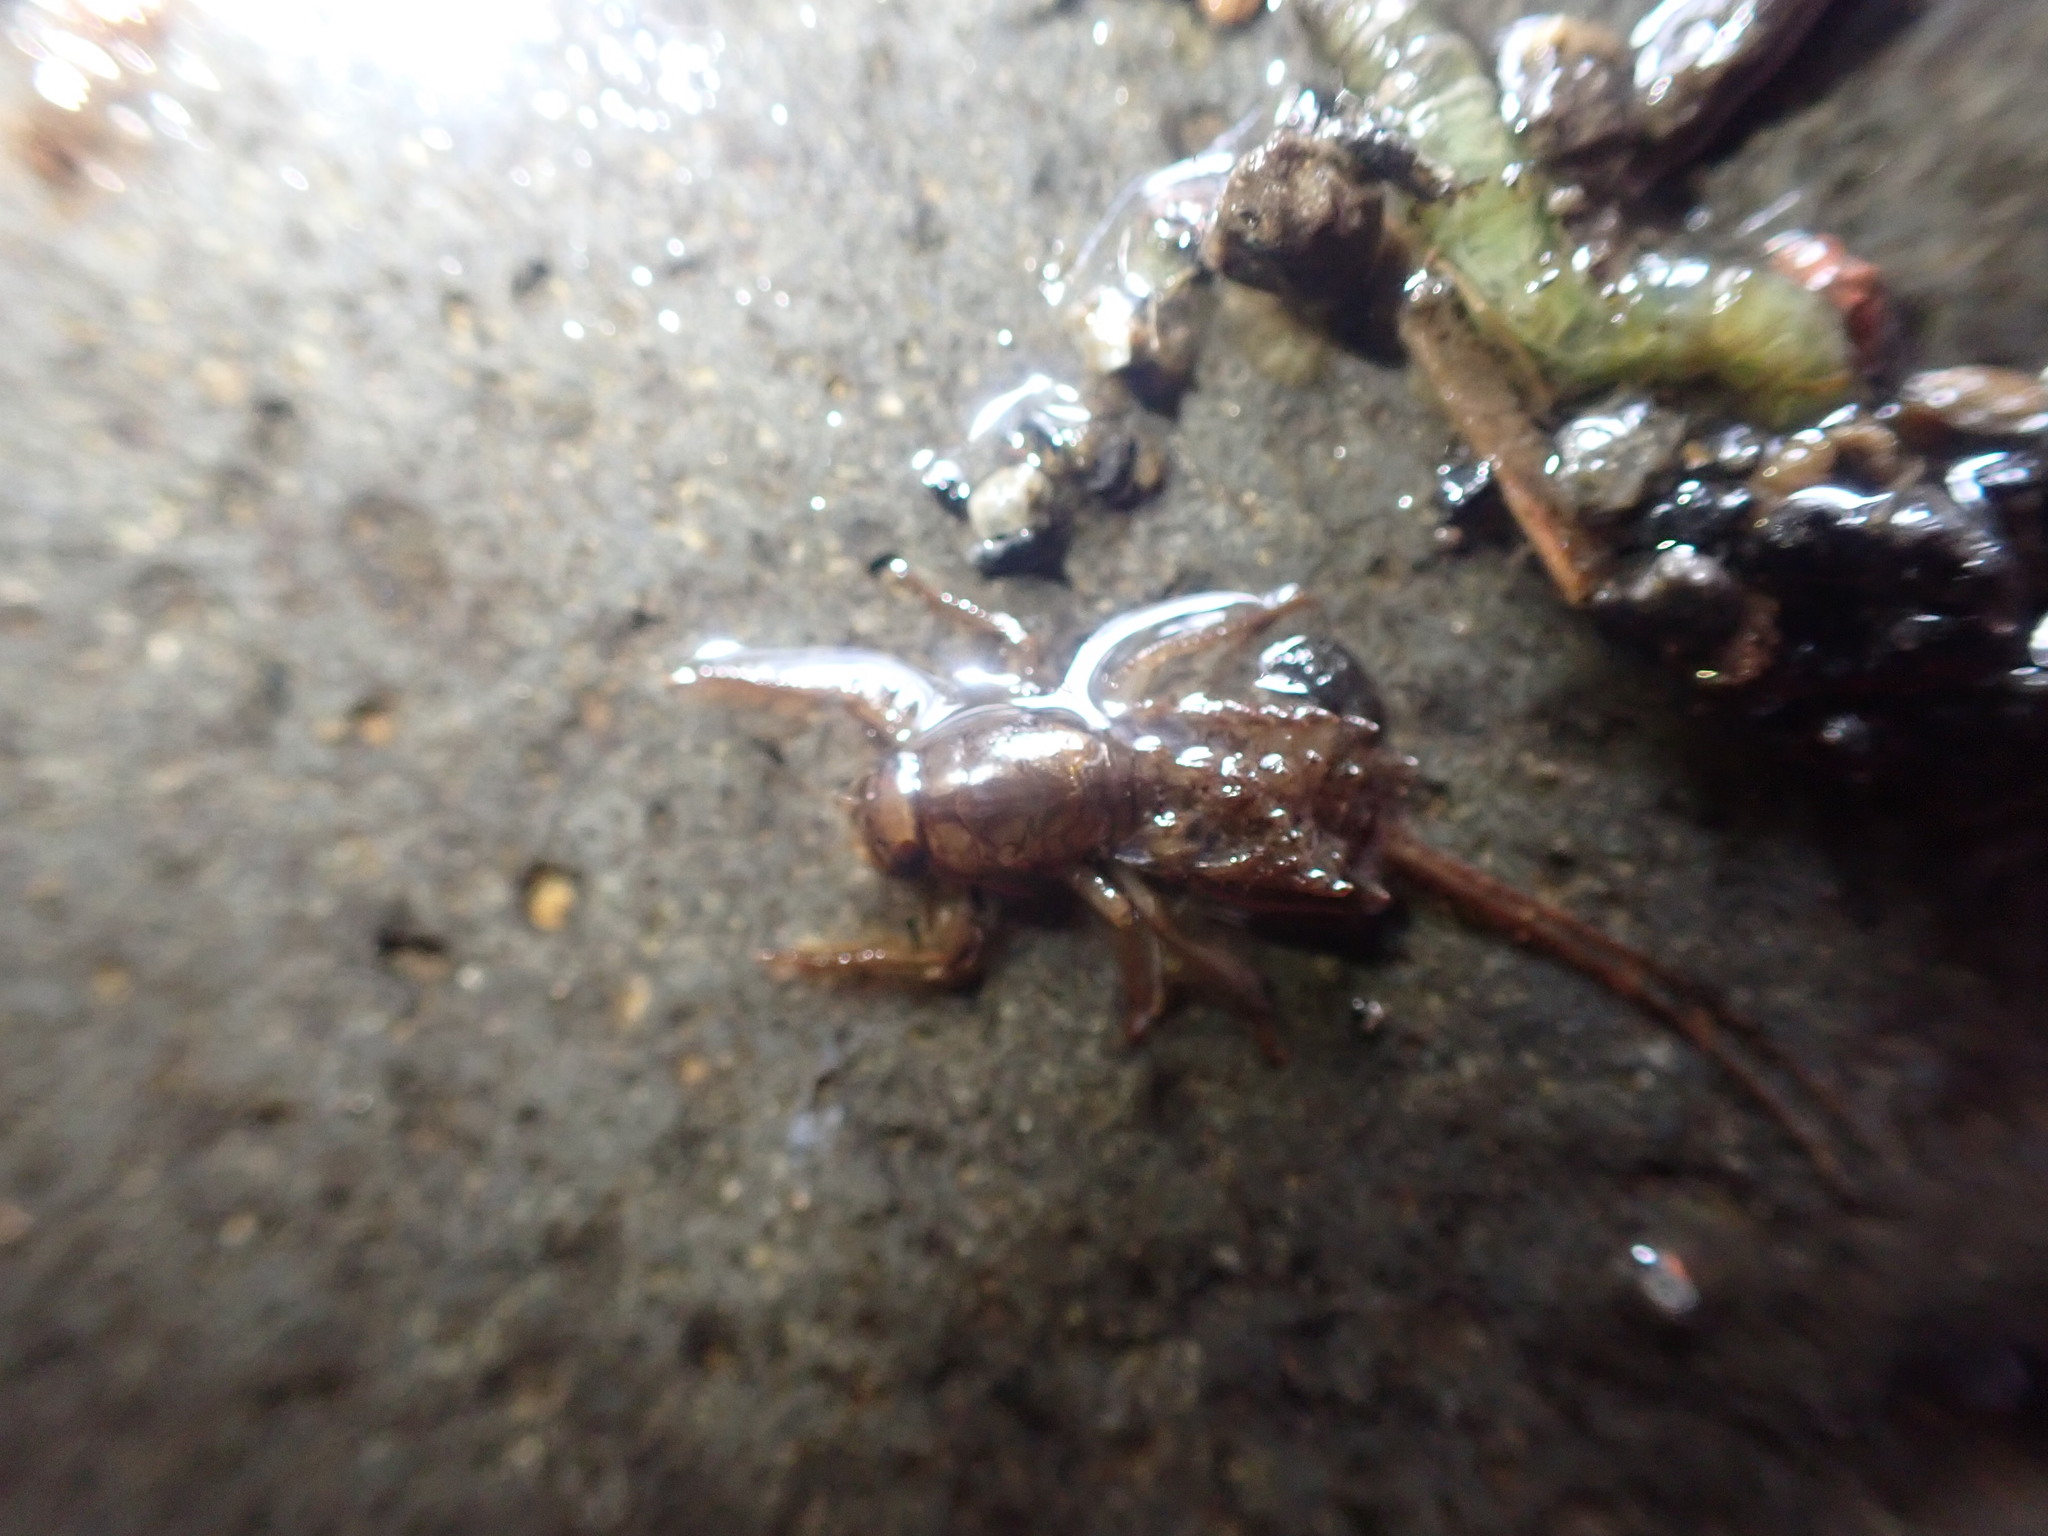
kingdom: Animalia
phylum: Arthropoda
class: Insecta
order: Ephemeroptera
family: Coloburiscidae
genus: Coloburiscus
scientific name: Coloburiscus humeralis
